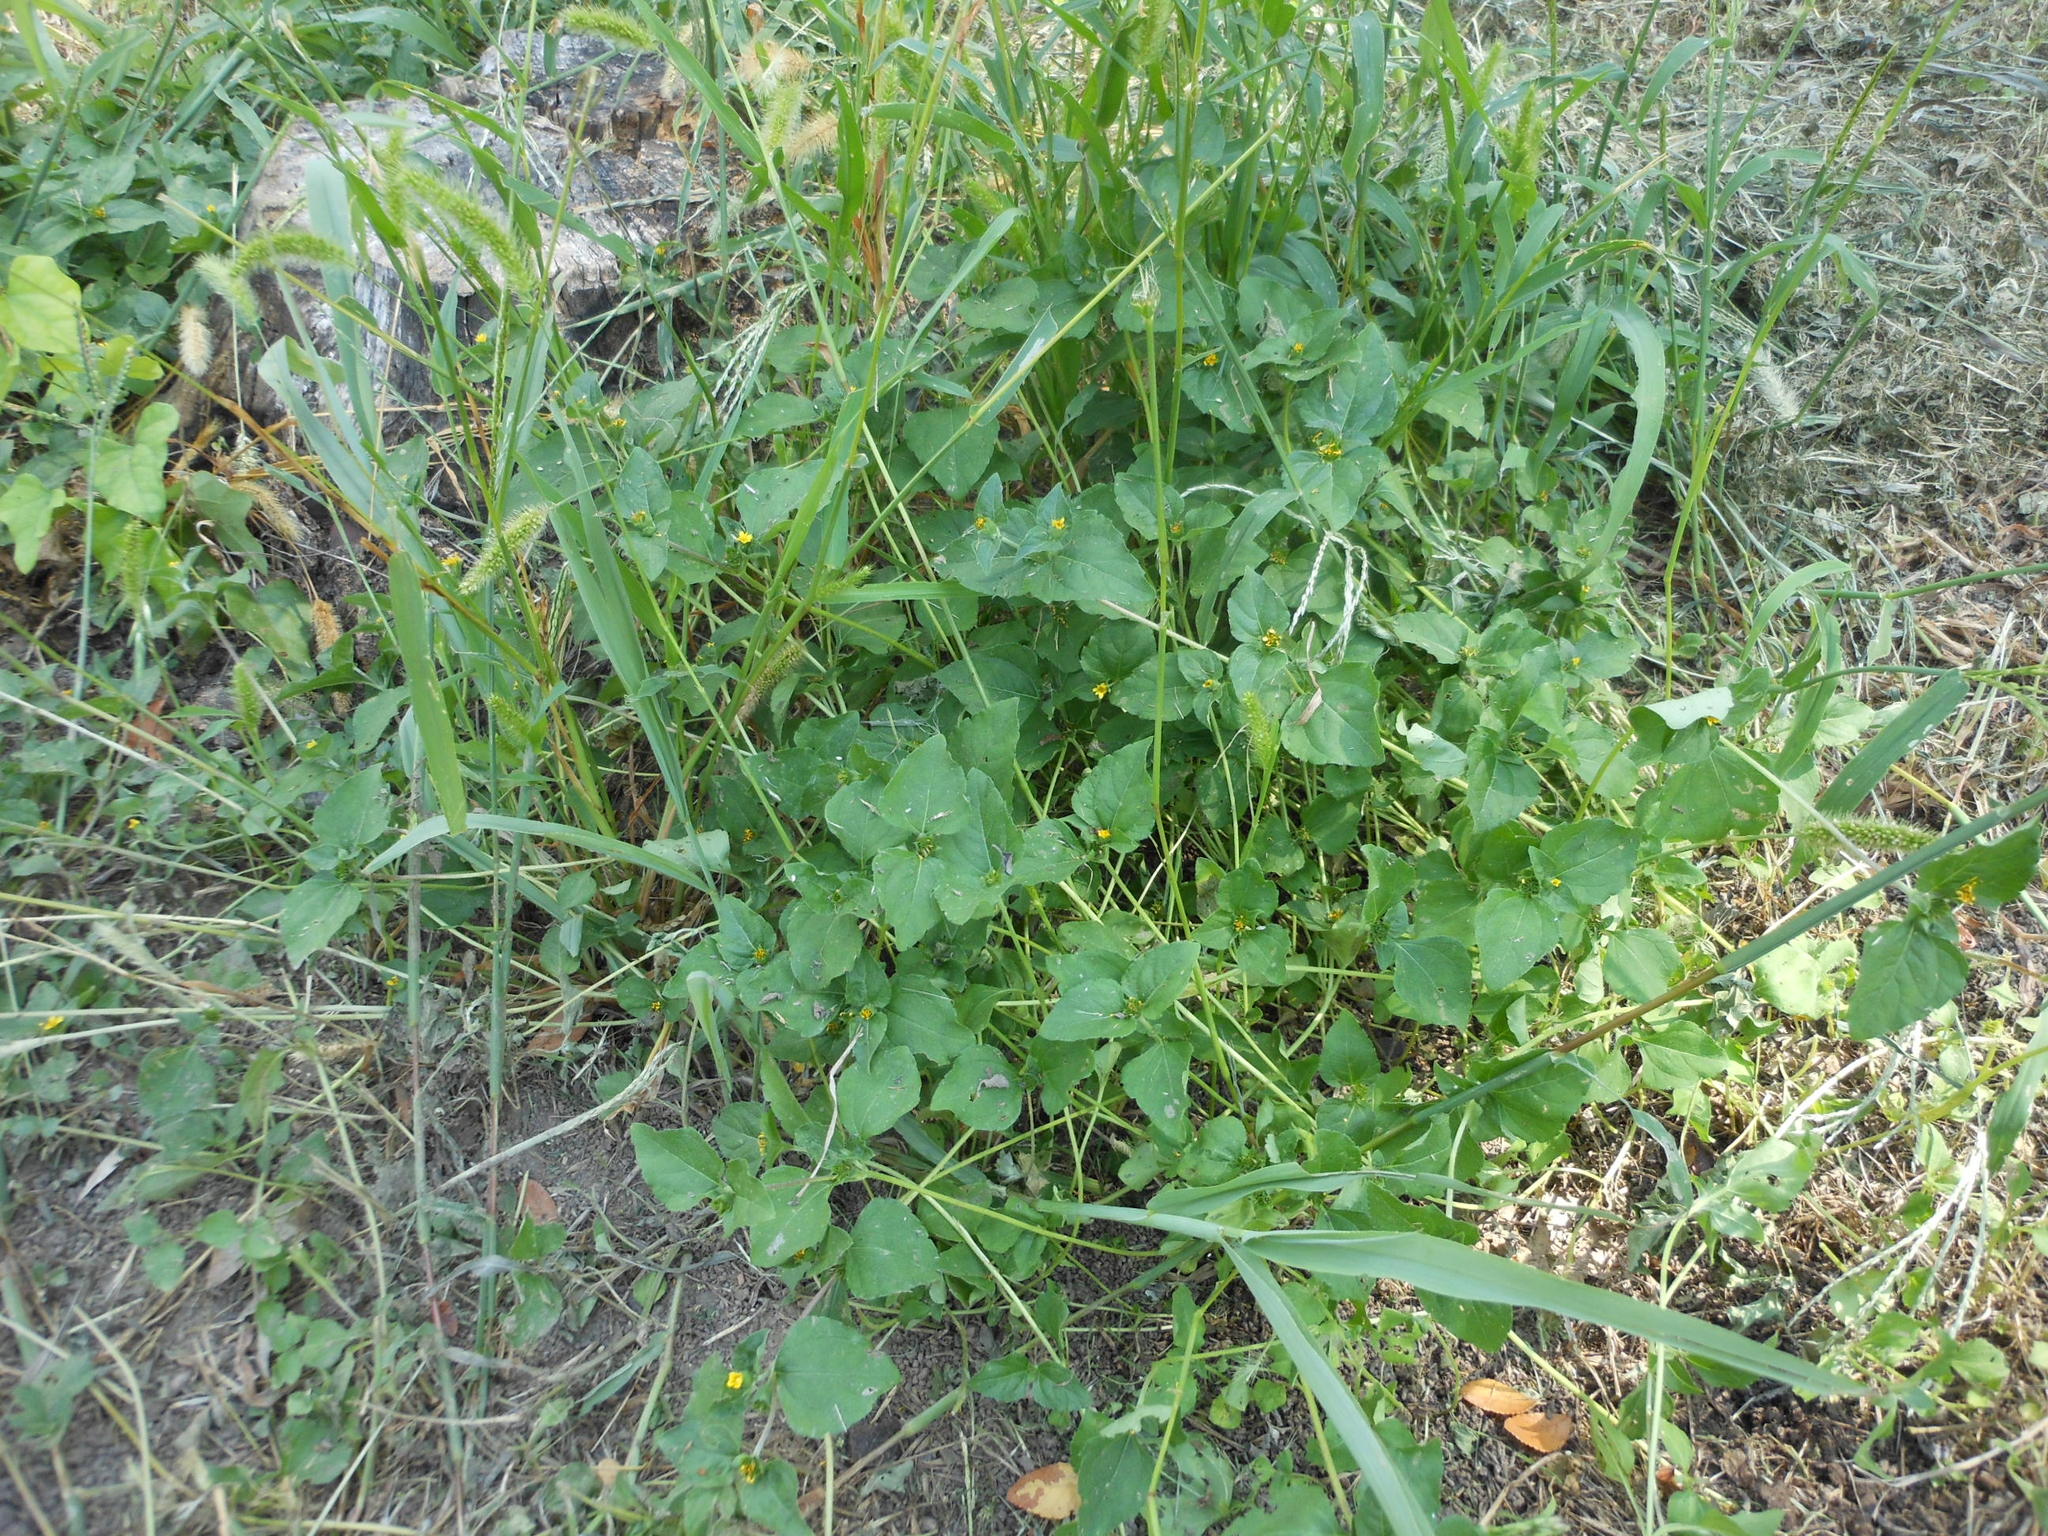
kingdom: Plantae
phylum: Tracheophyta
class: Magnoliopsida
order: Asterales
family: Asteraceae
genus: Calyptocarpus
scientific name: Calyptocarpus vialis
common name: Straggler daisy
